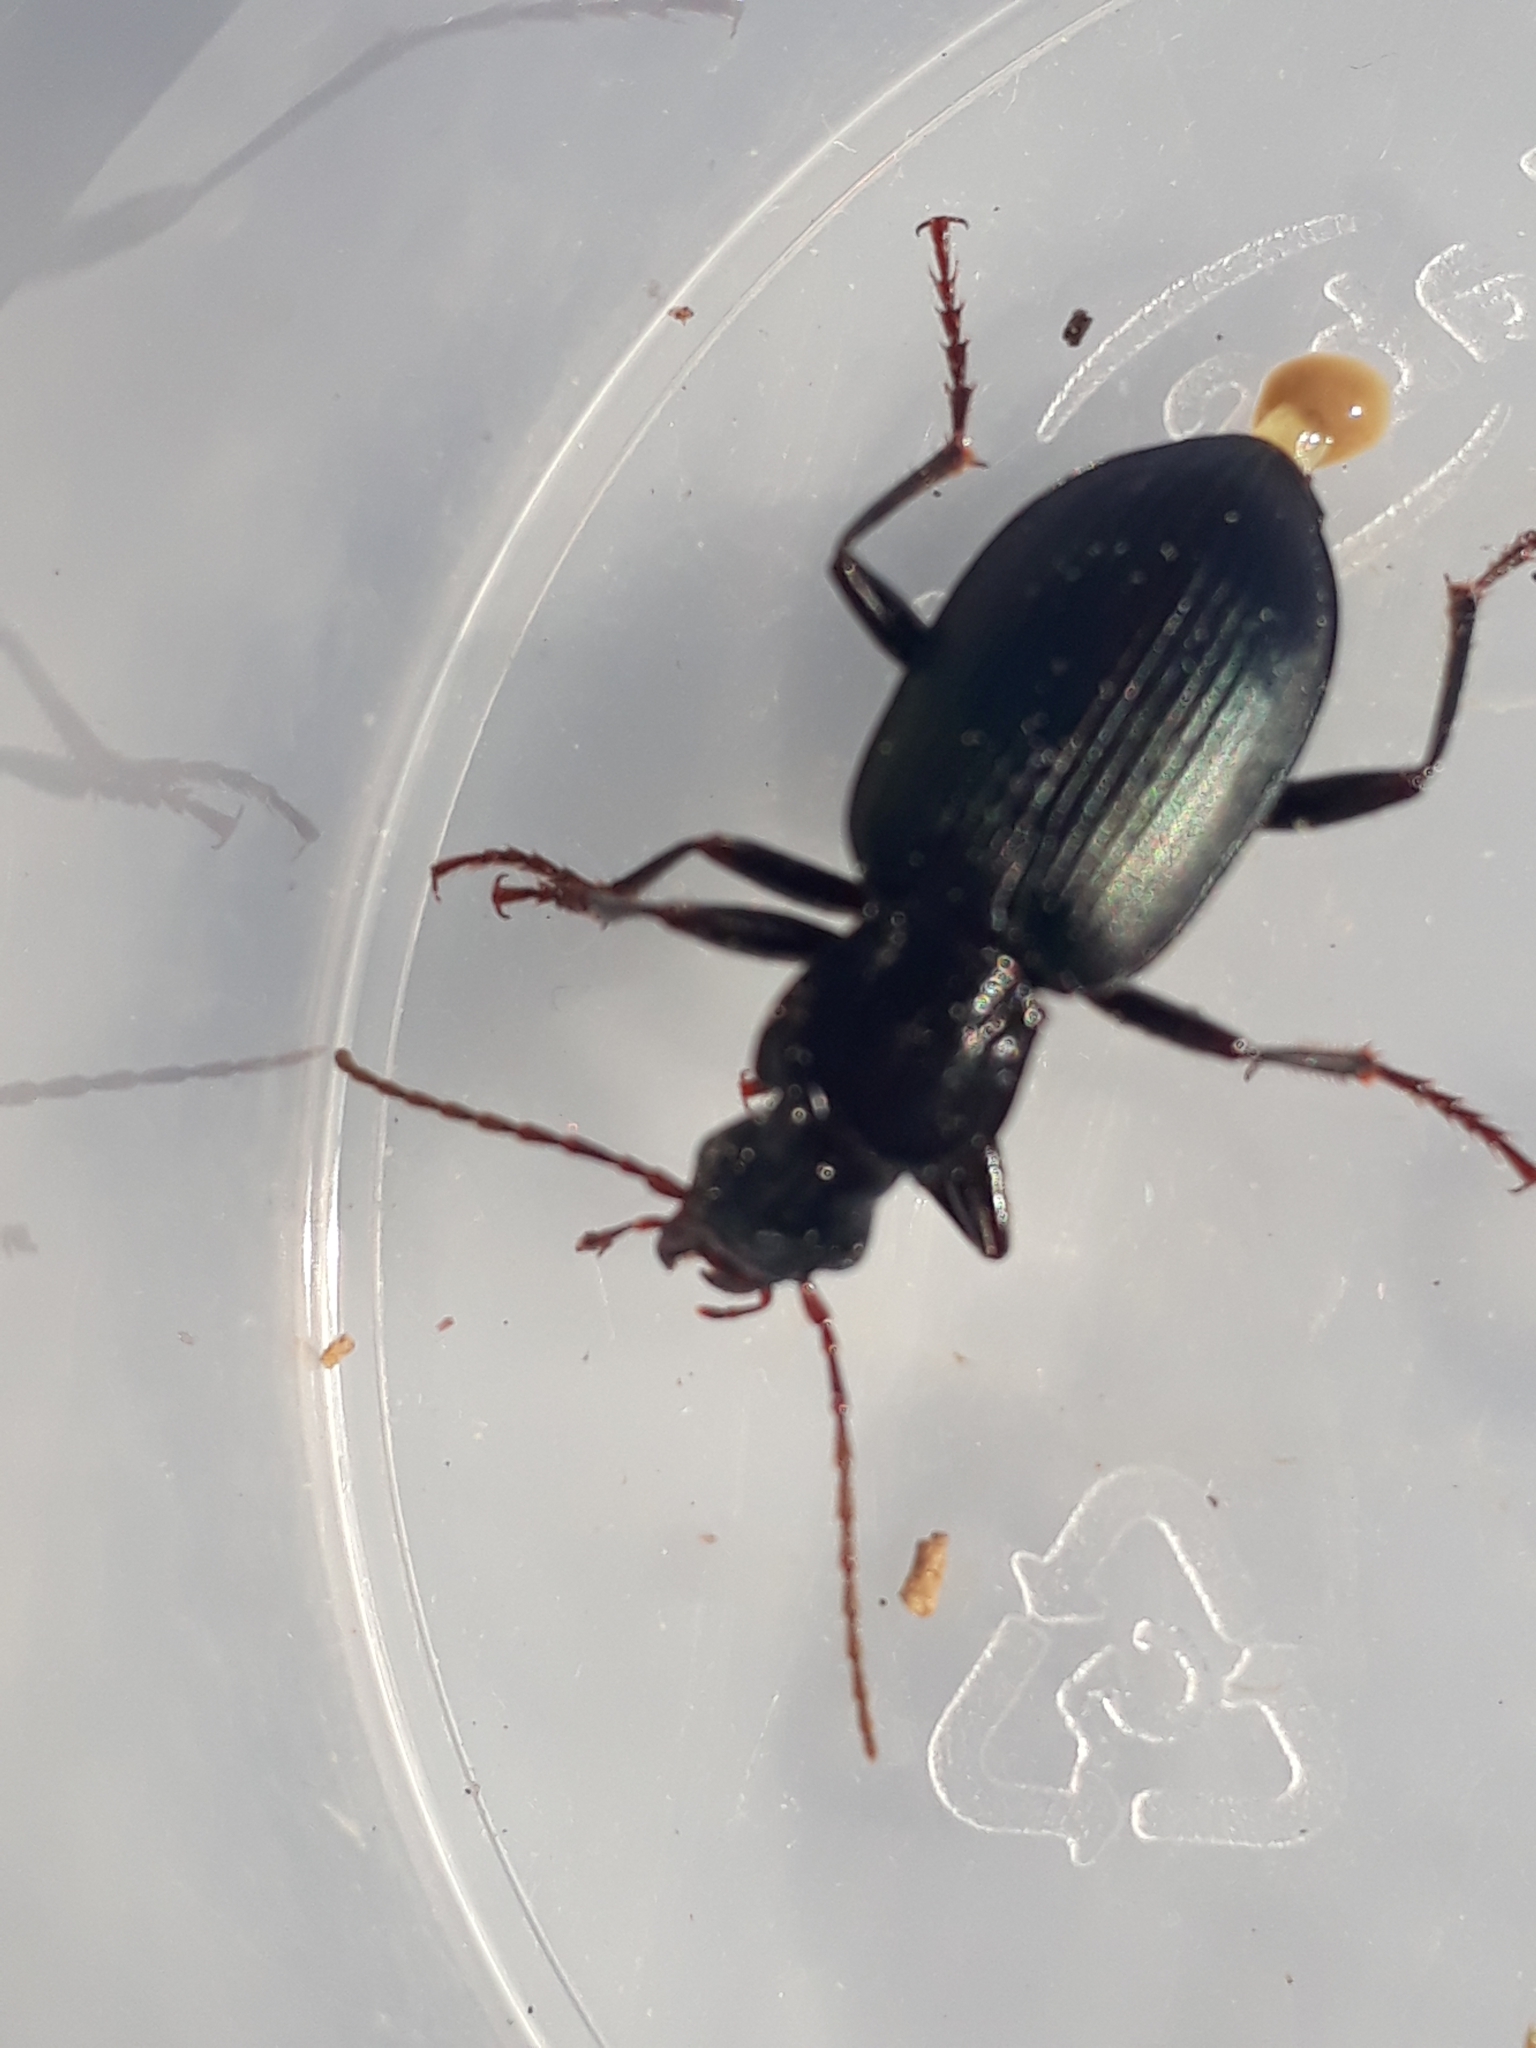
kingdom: Animalia
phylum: Arthropoda
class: Insecta
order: Coleoptera
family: Carabidae
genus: Laemostenus
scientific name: Laemostenus complanatus
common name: Cosmopolitan ground beetle
